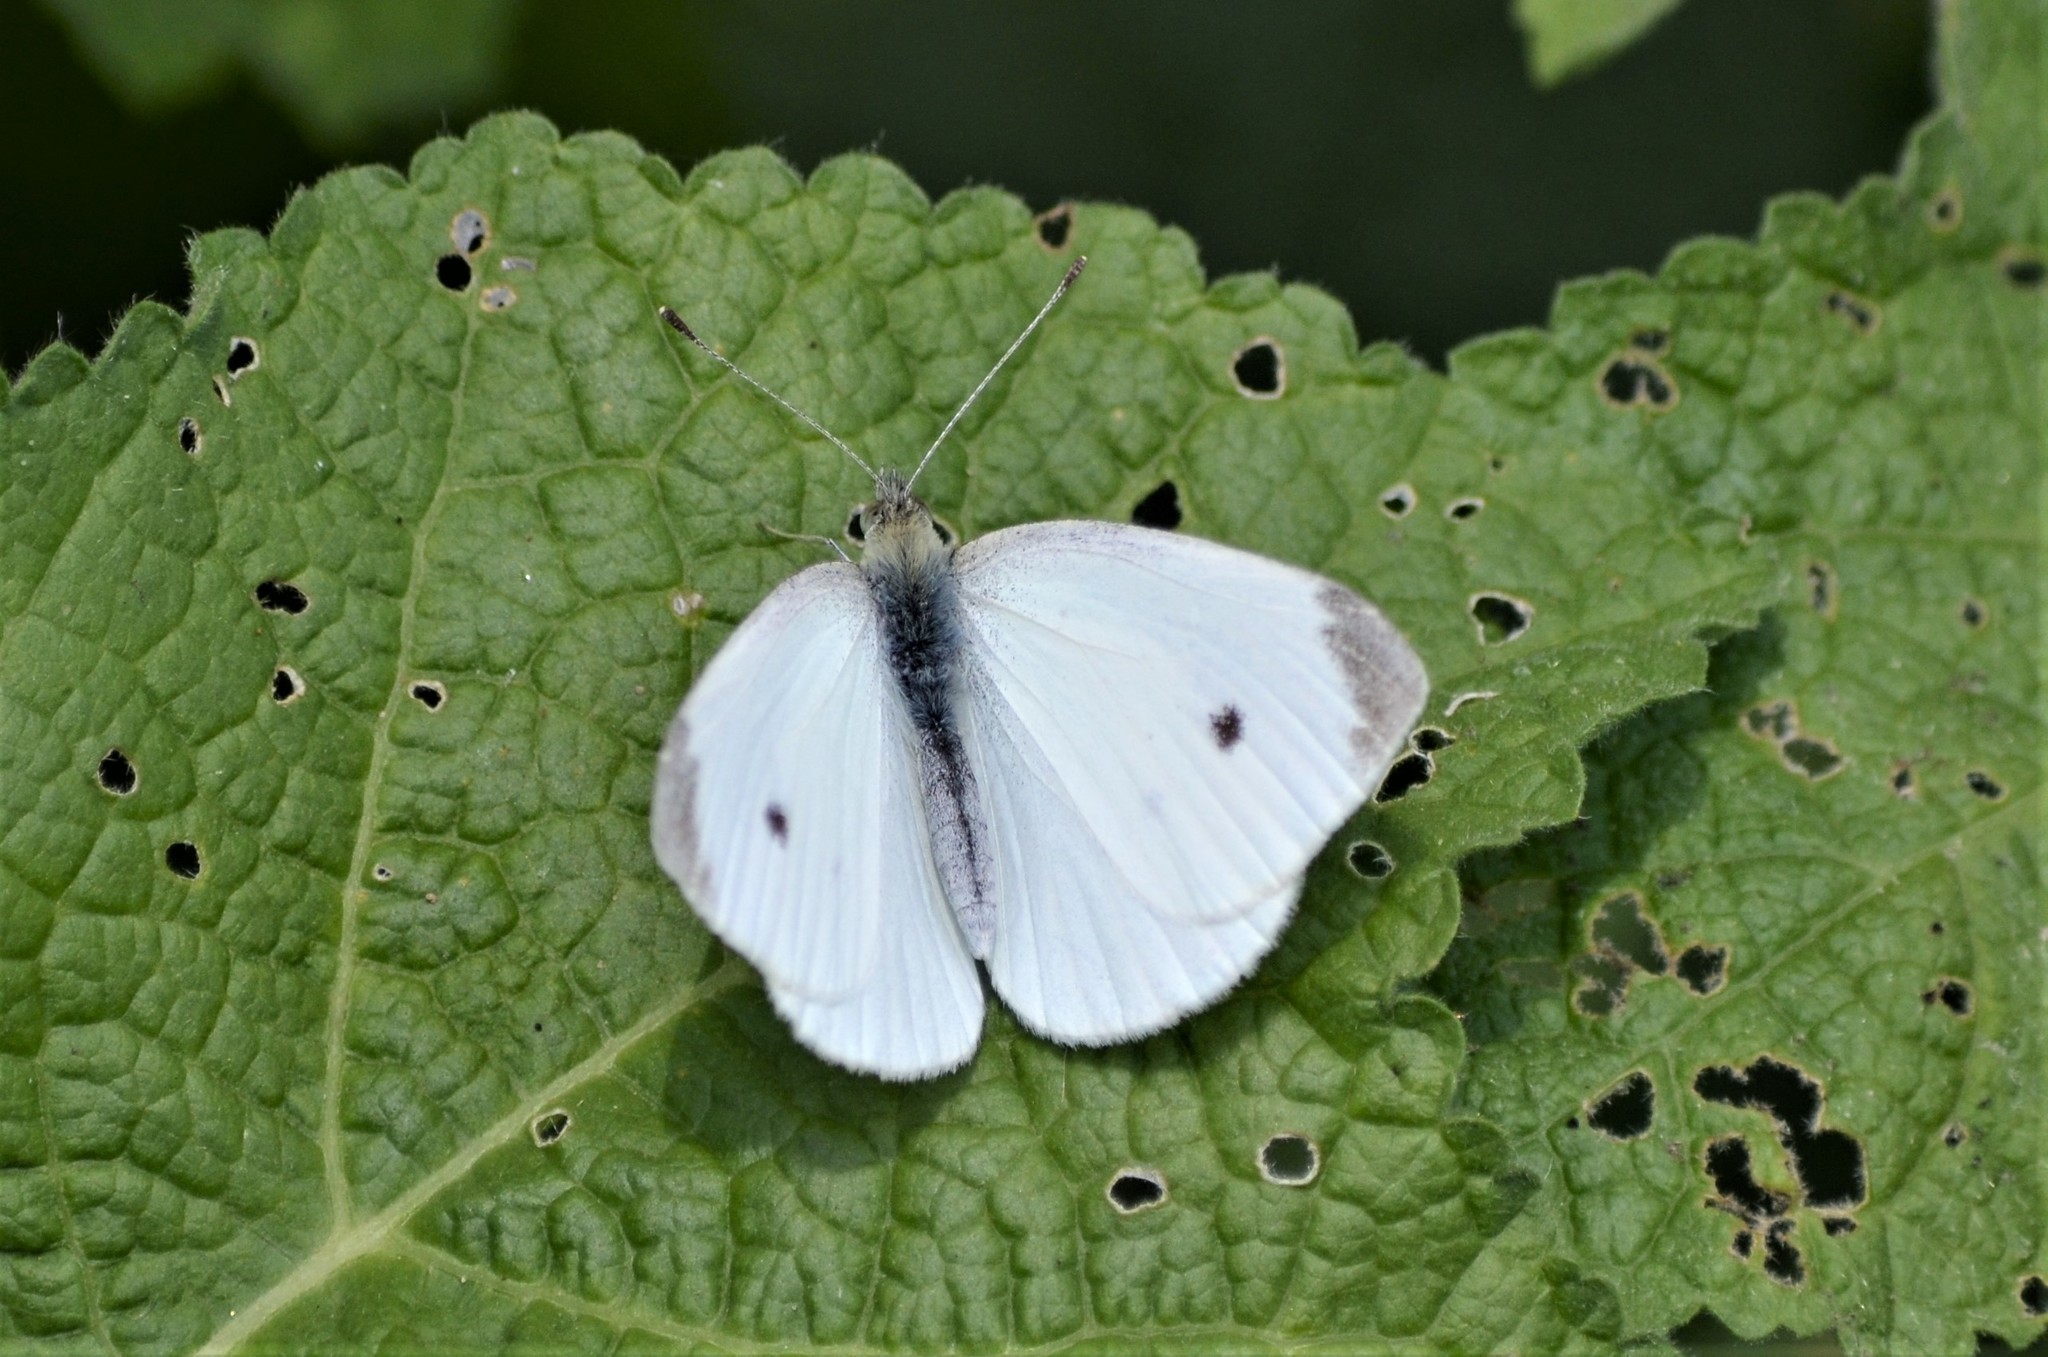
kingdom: Animalia
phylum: Arthropoda
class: Insecta
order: Lepidoptera
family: Pieridae
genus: Pieris
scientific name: Pieris rapae
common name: Small white
